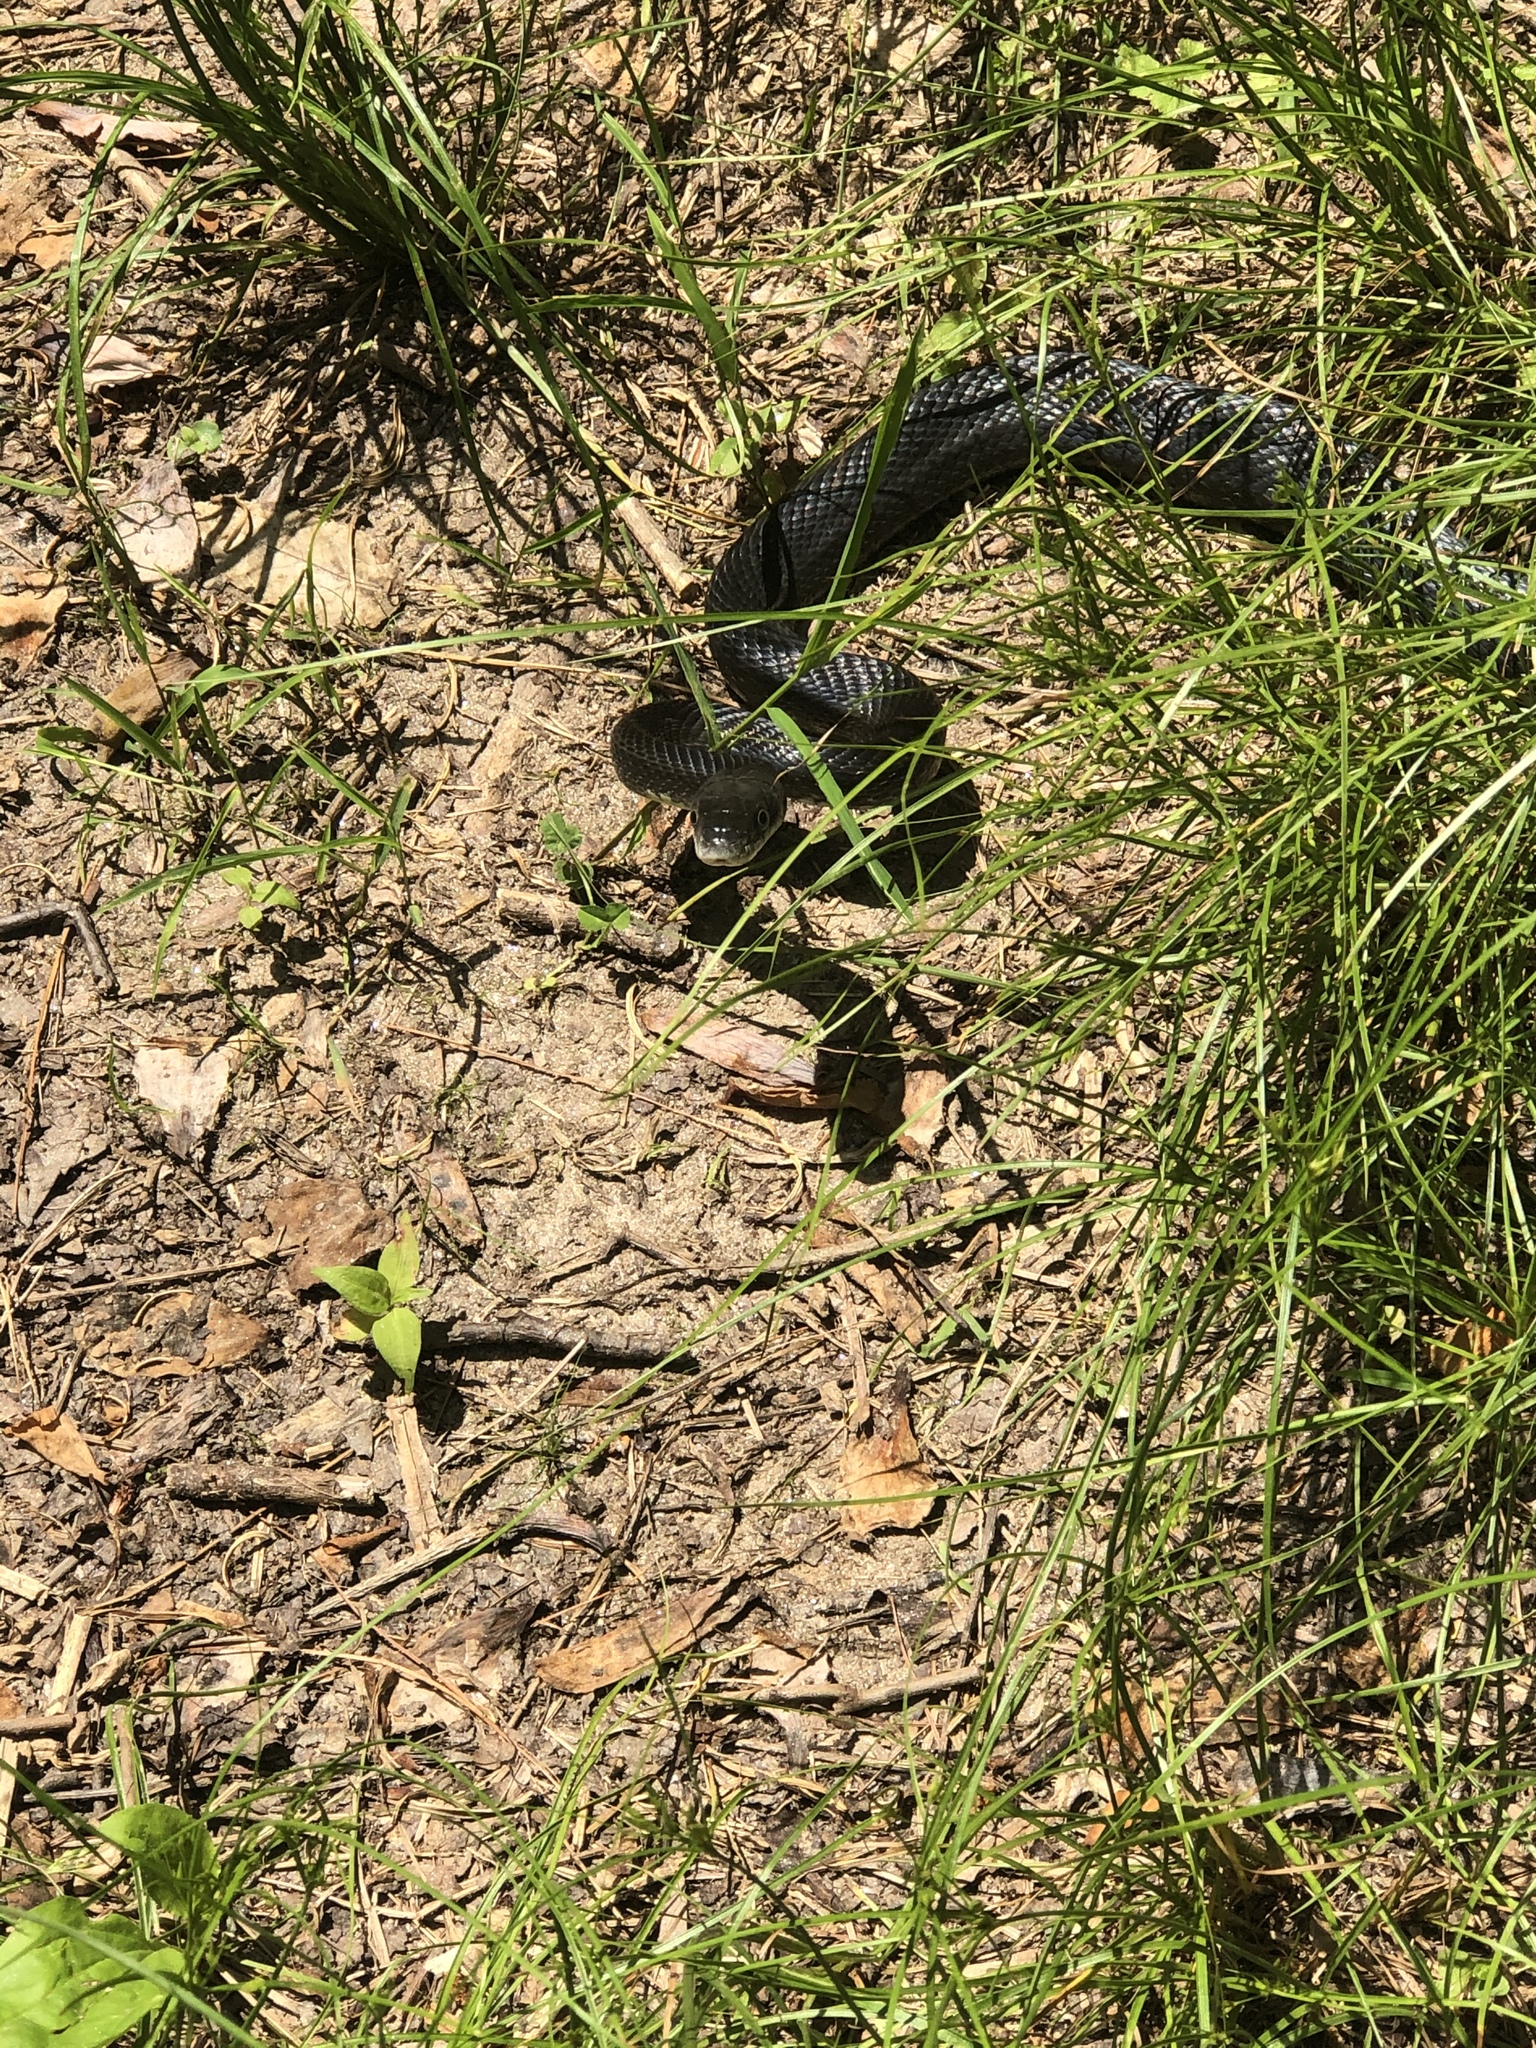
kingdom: Animalia
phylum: Chordata
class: Squamata
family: Colubridae
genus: Pantherophis
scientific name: Pantherophis alleghaniensis
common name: Eastern rat snake
